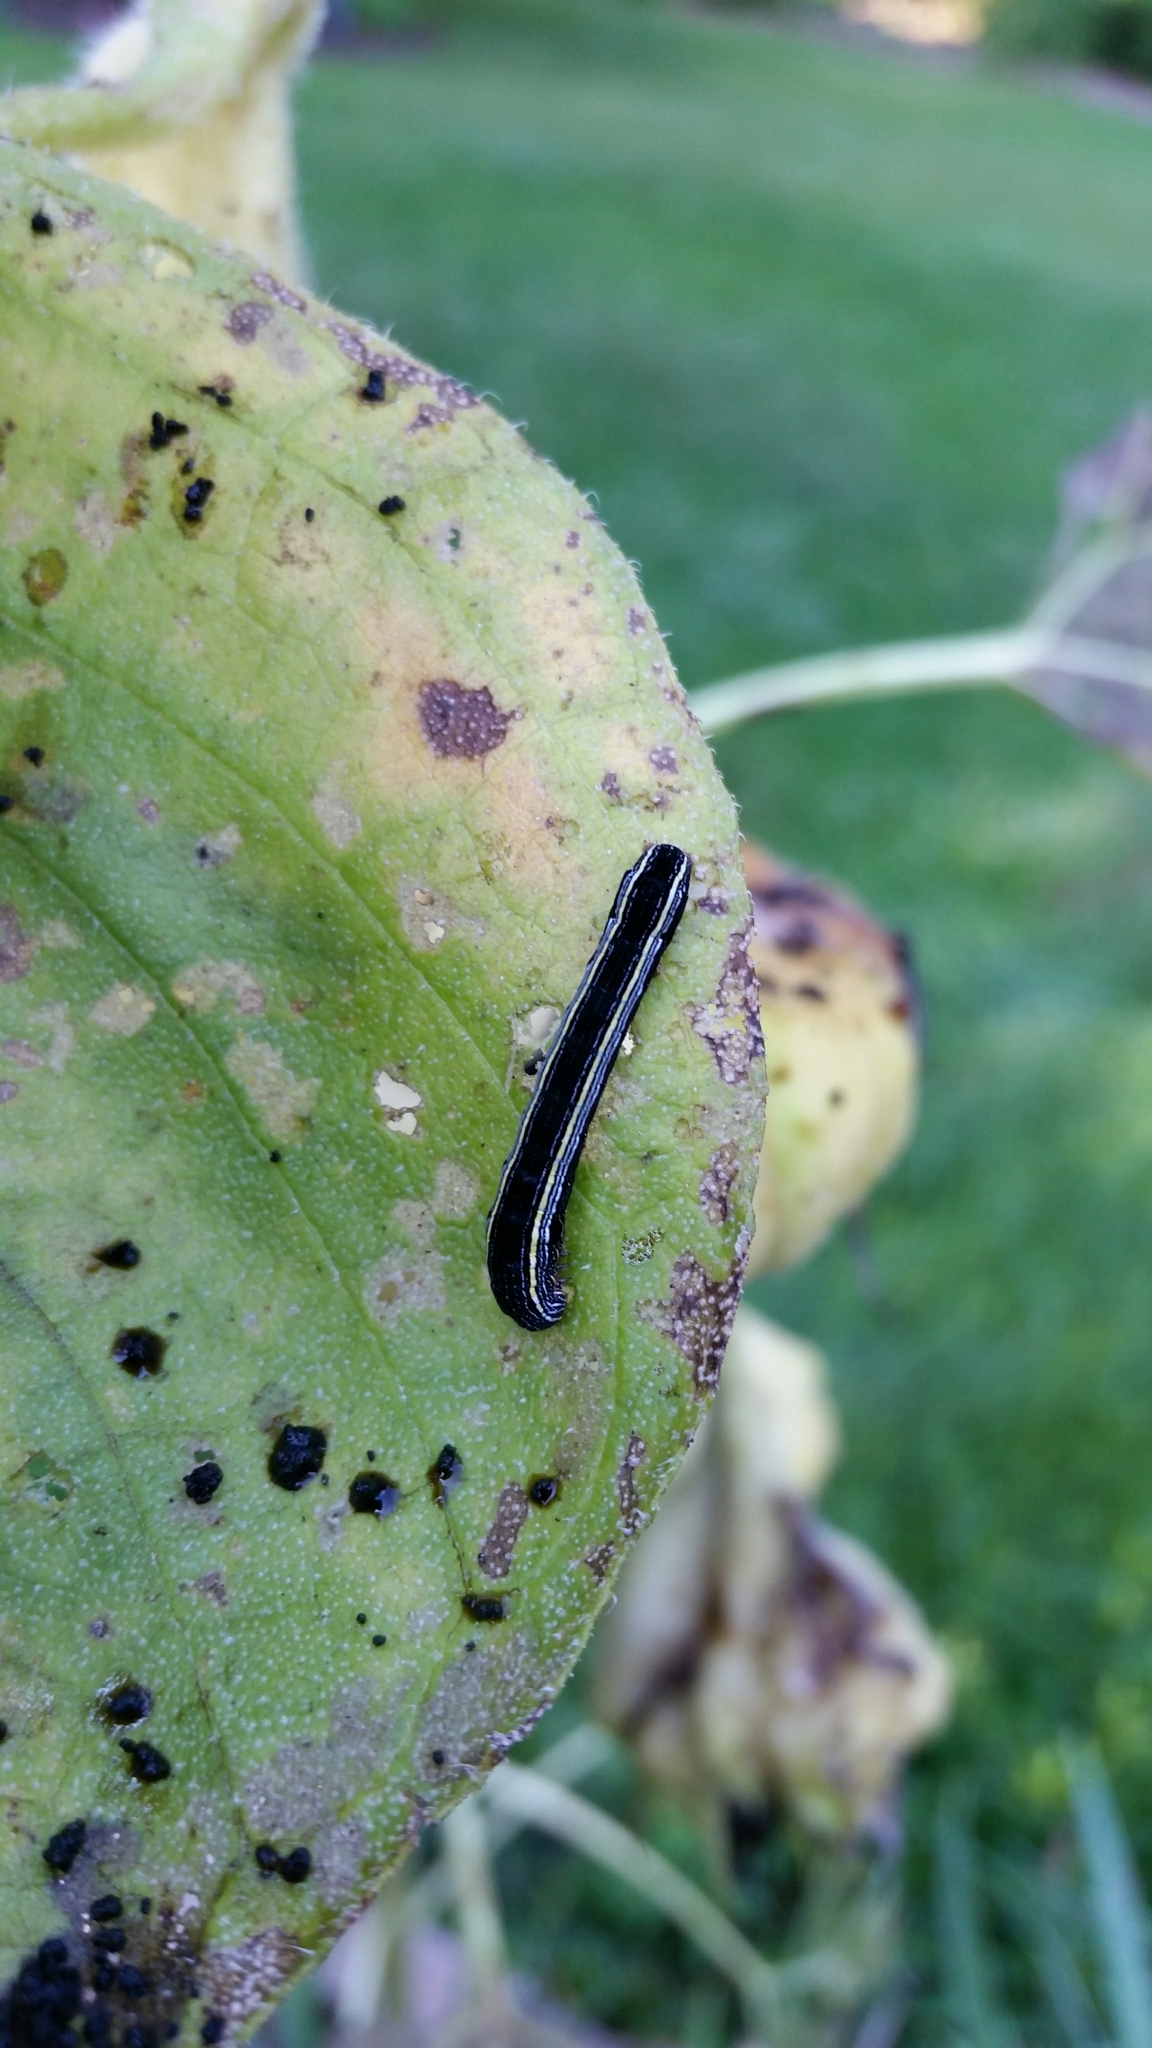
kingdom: Animalia
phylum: Arthropoda
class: Insecta
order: Lepidoptera
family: Noctuidae
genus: Spodoptera
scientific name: Spodoptera ornithogalli
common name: Yellow-striped armyworm
